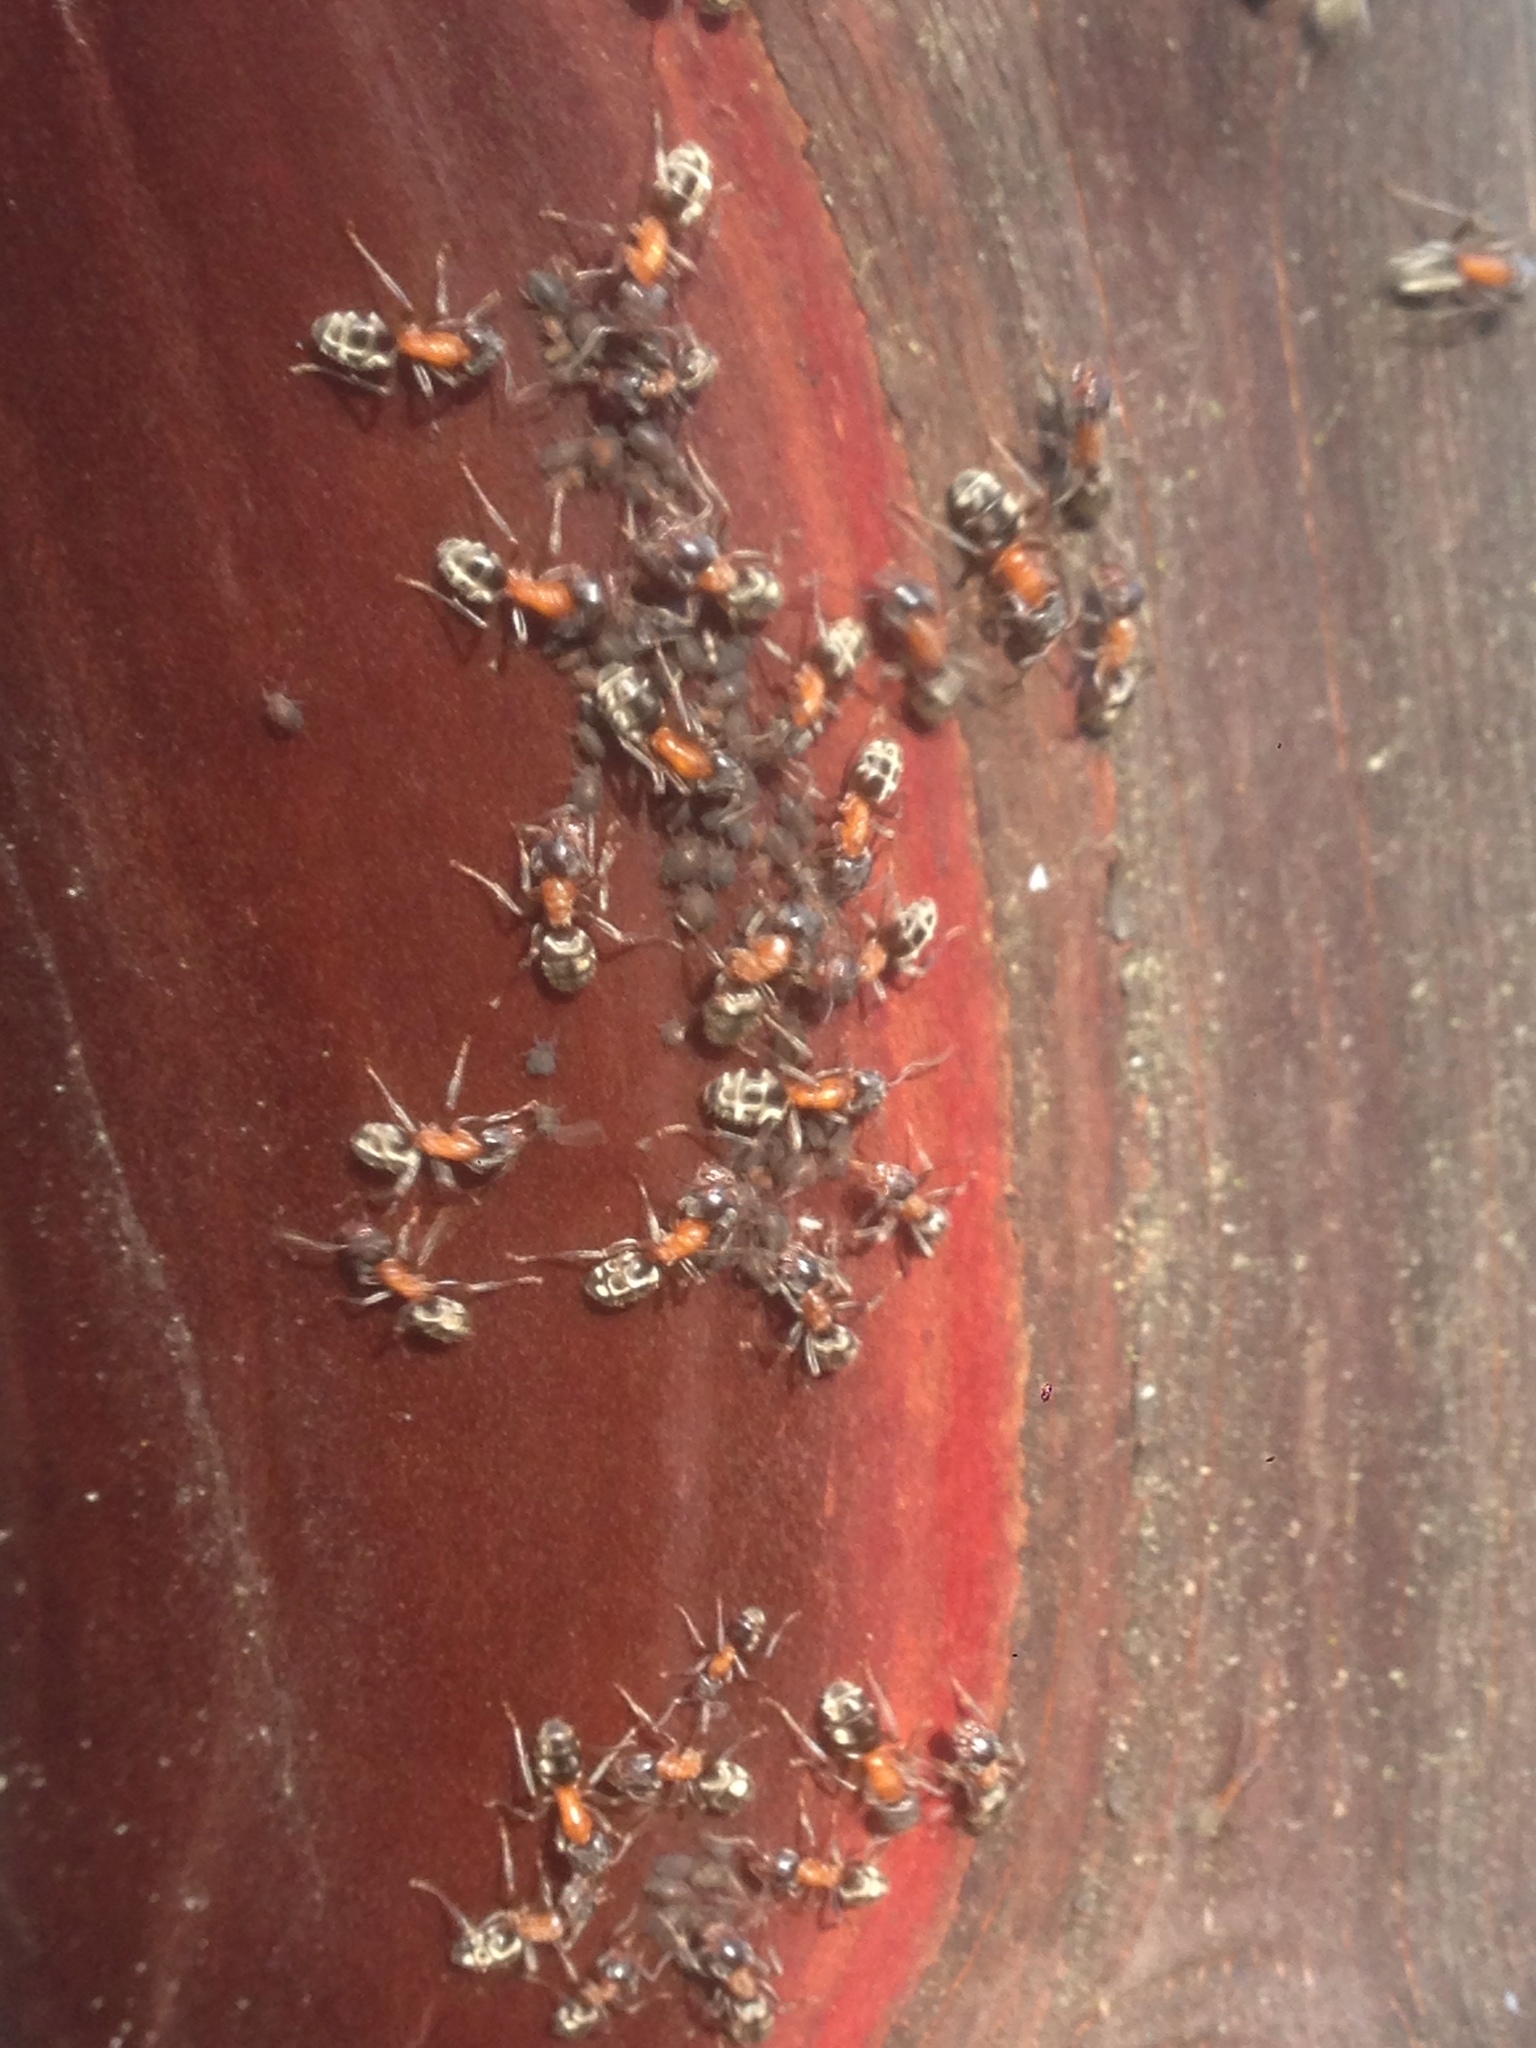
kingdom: Animalia
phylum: Arthropoda
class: Insecta
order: Hymenoptera
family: Formicidae
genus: Liometopum
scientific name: Liometopum occidentale
